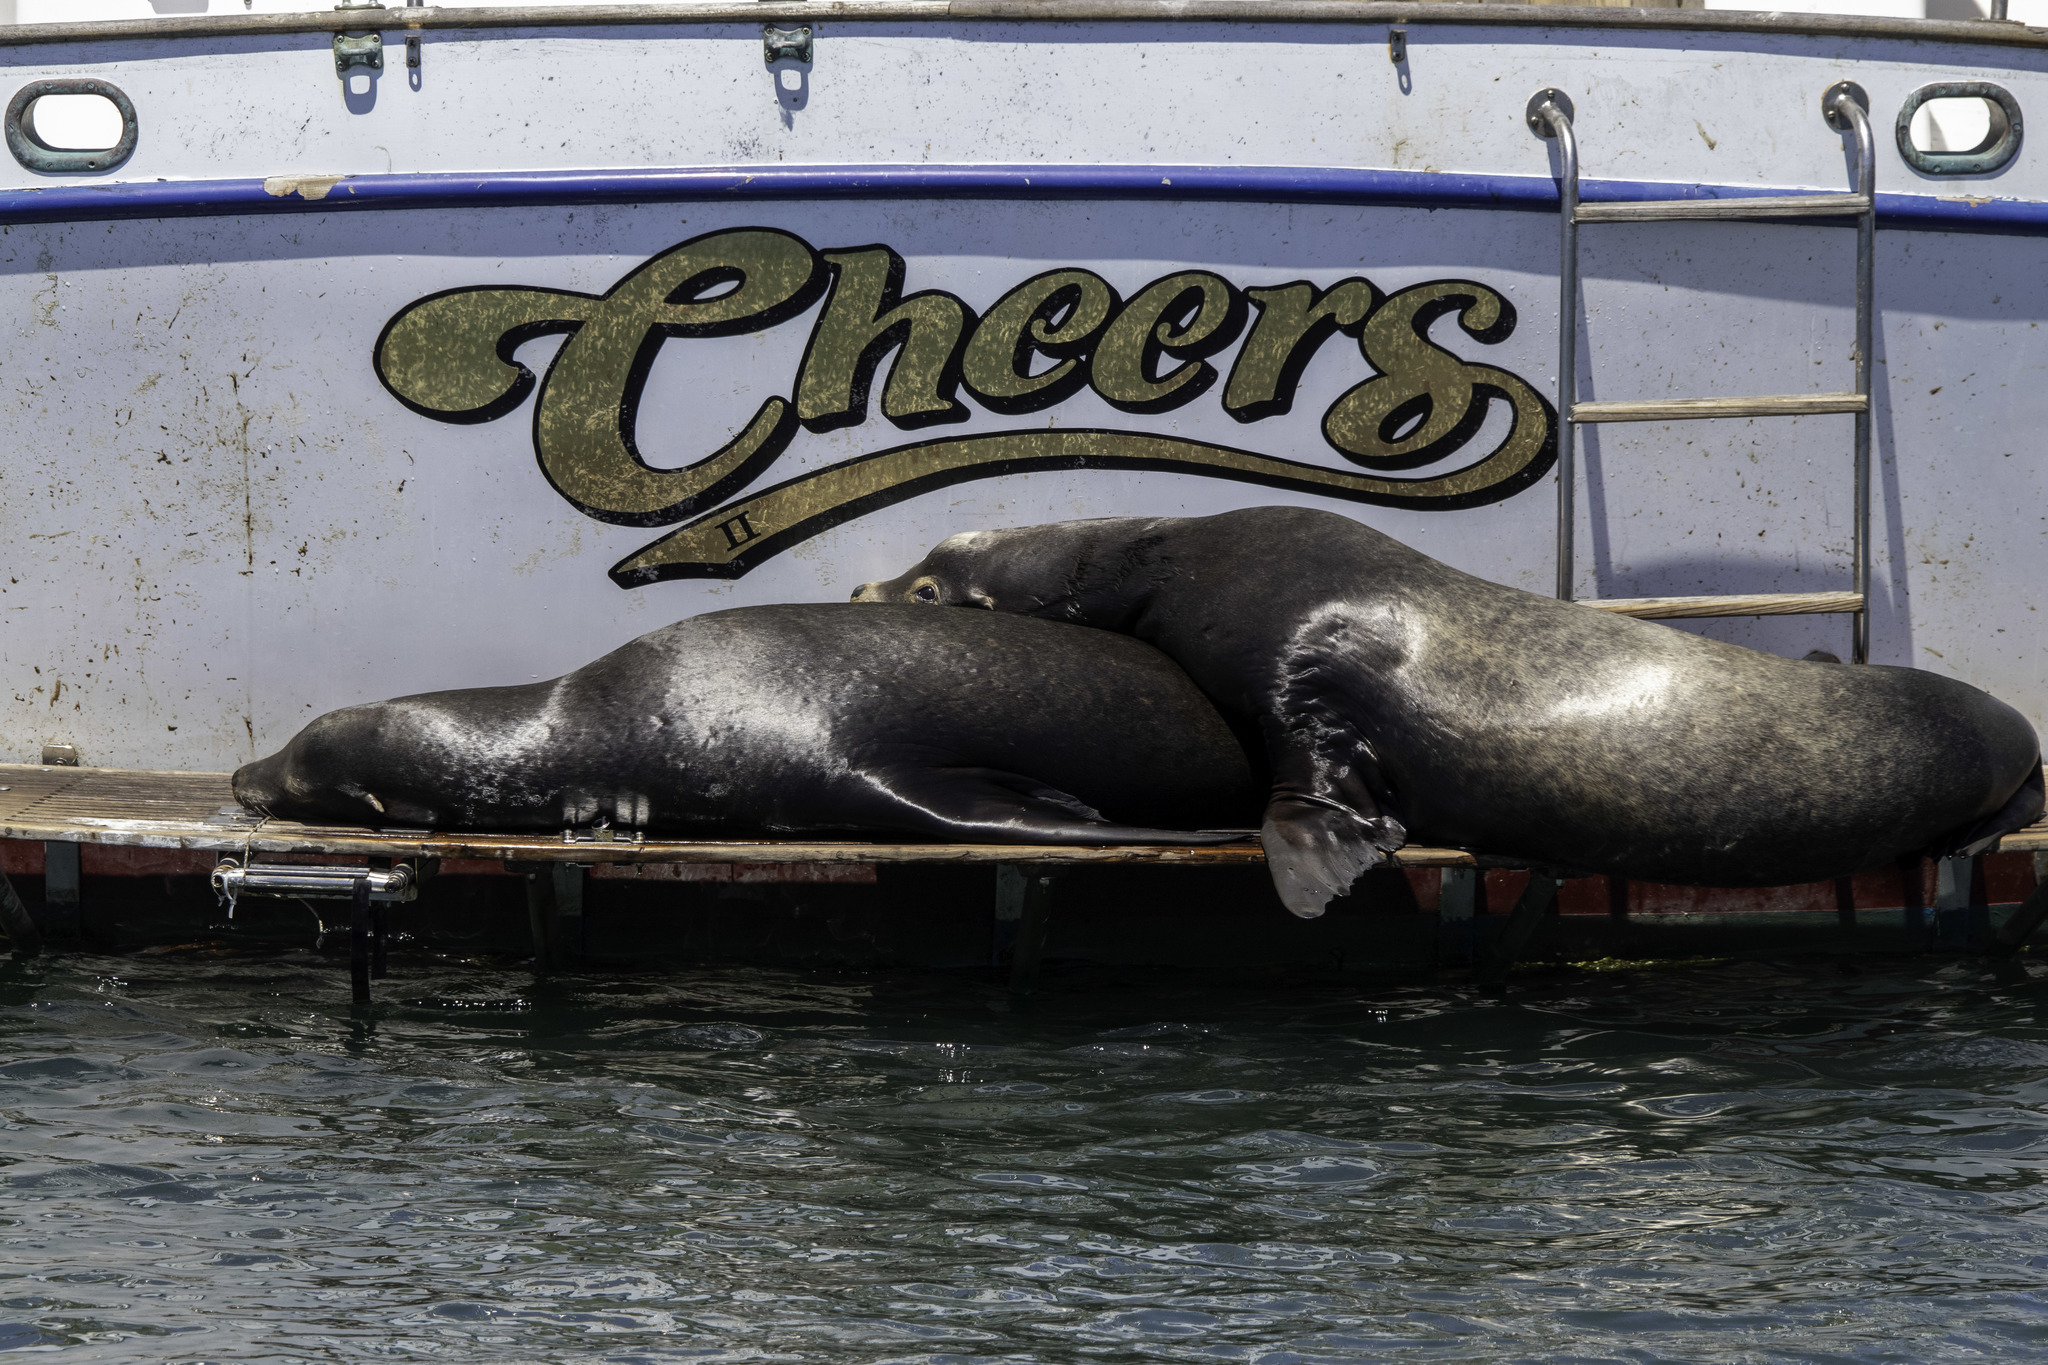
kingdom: Animalia
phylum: Chordata
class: Mammalia
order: Carnivora
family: Otariidae
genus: Zalophus
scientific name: Zalophus californianus
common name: California sea lion
